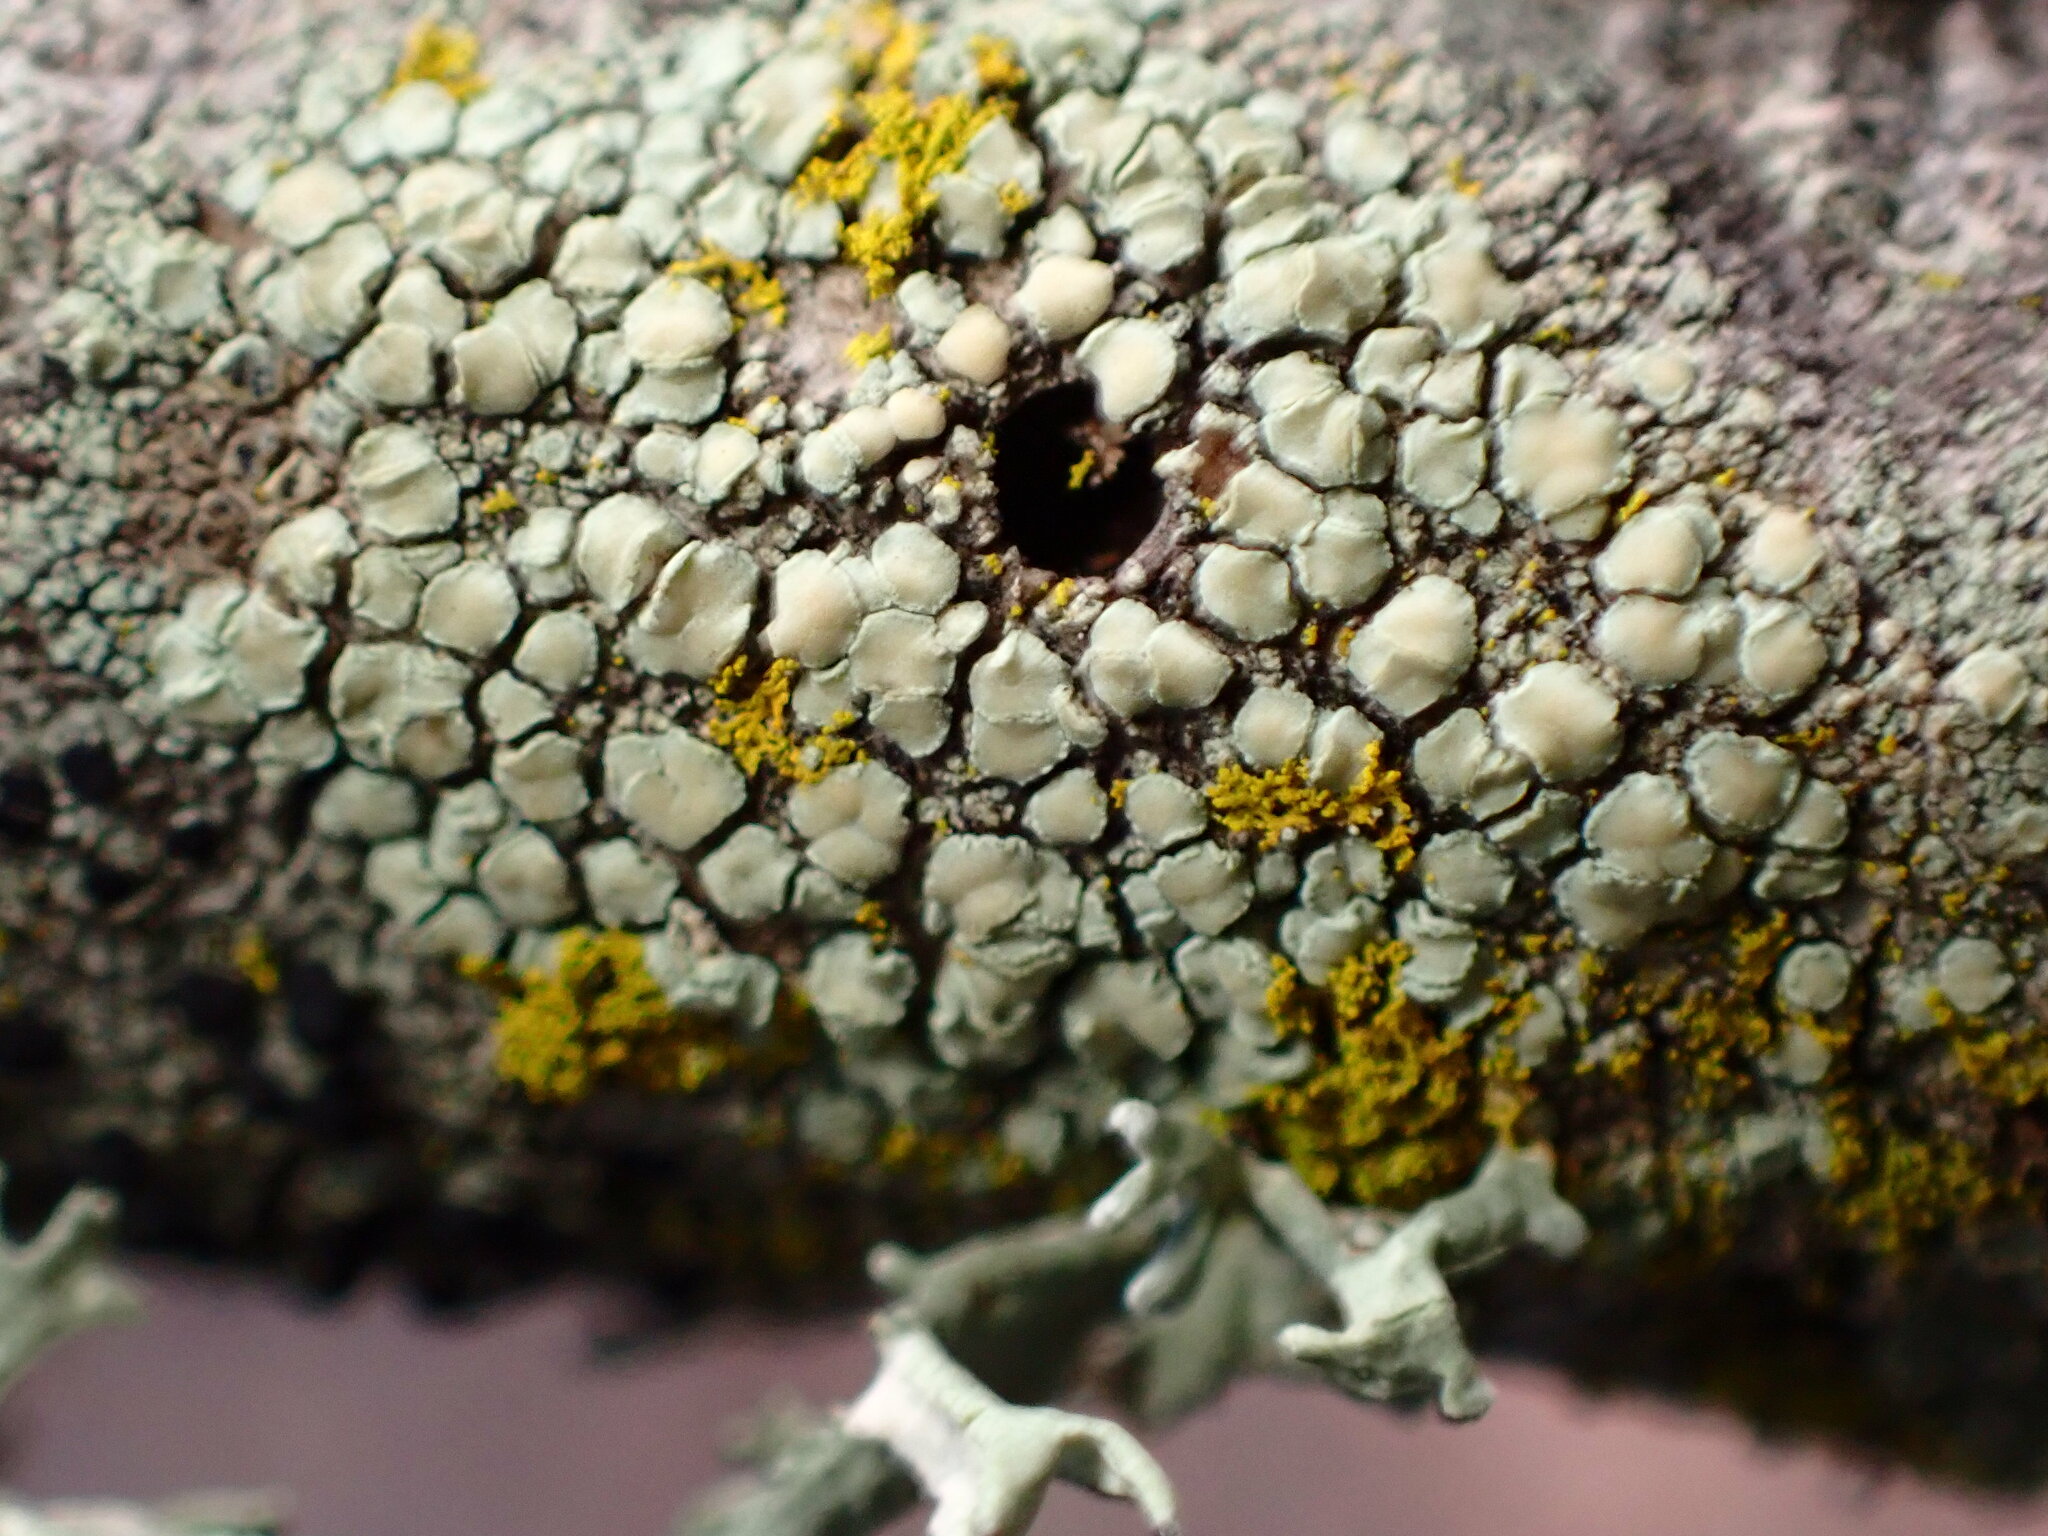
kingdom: Fungi
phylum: Ascomycota
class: Lecanoromycetes
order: Lecanorales
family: Lecanoraceae
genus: Lecanora
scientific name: Lecanora confusa
